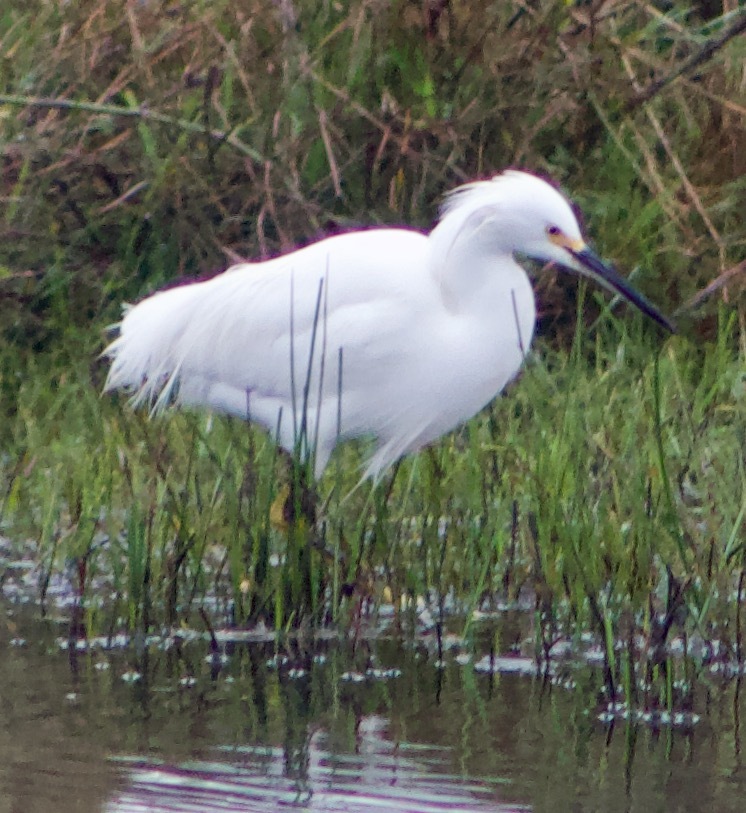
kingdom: Animalia
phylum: Chordata
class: Aves
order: Pelecaniformes
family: Ardeidae
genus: Egretta
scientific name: Egretta thula
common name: Snowy egret
